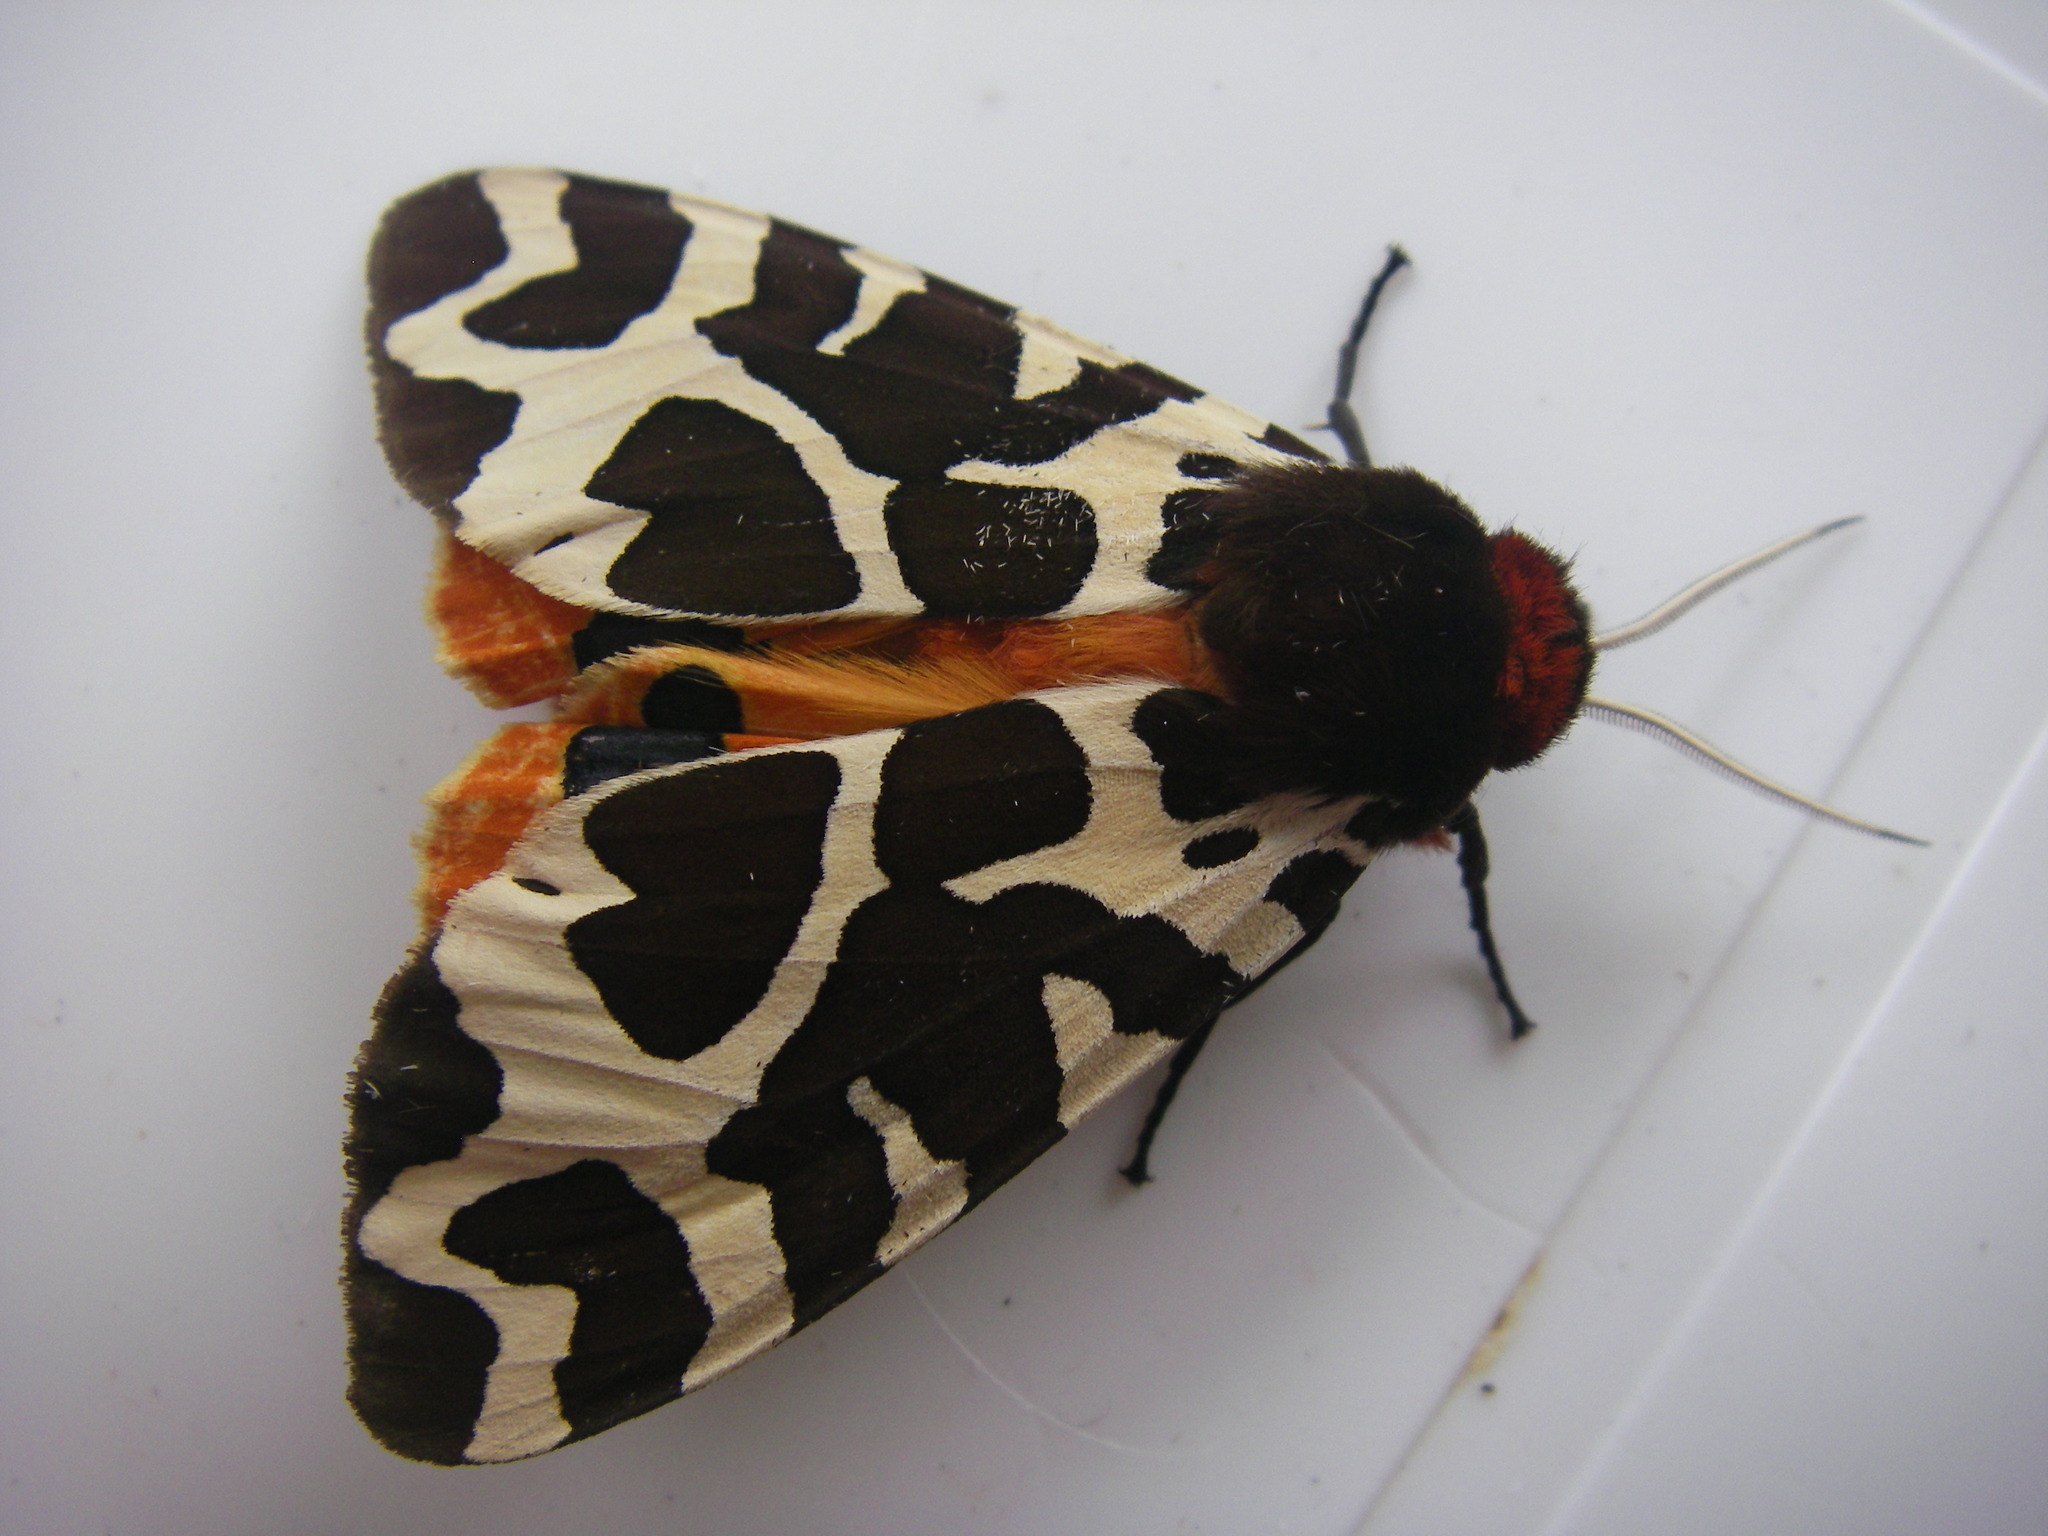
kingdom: Animalia
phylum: Arthropoda
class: Insecta
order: Lepidoptera
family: Erebidae
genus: Arctia
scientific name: Arctia caja
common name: Garden tiger
